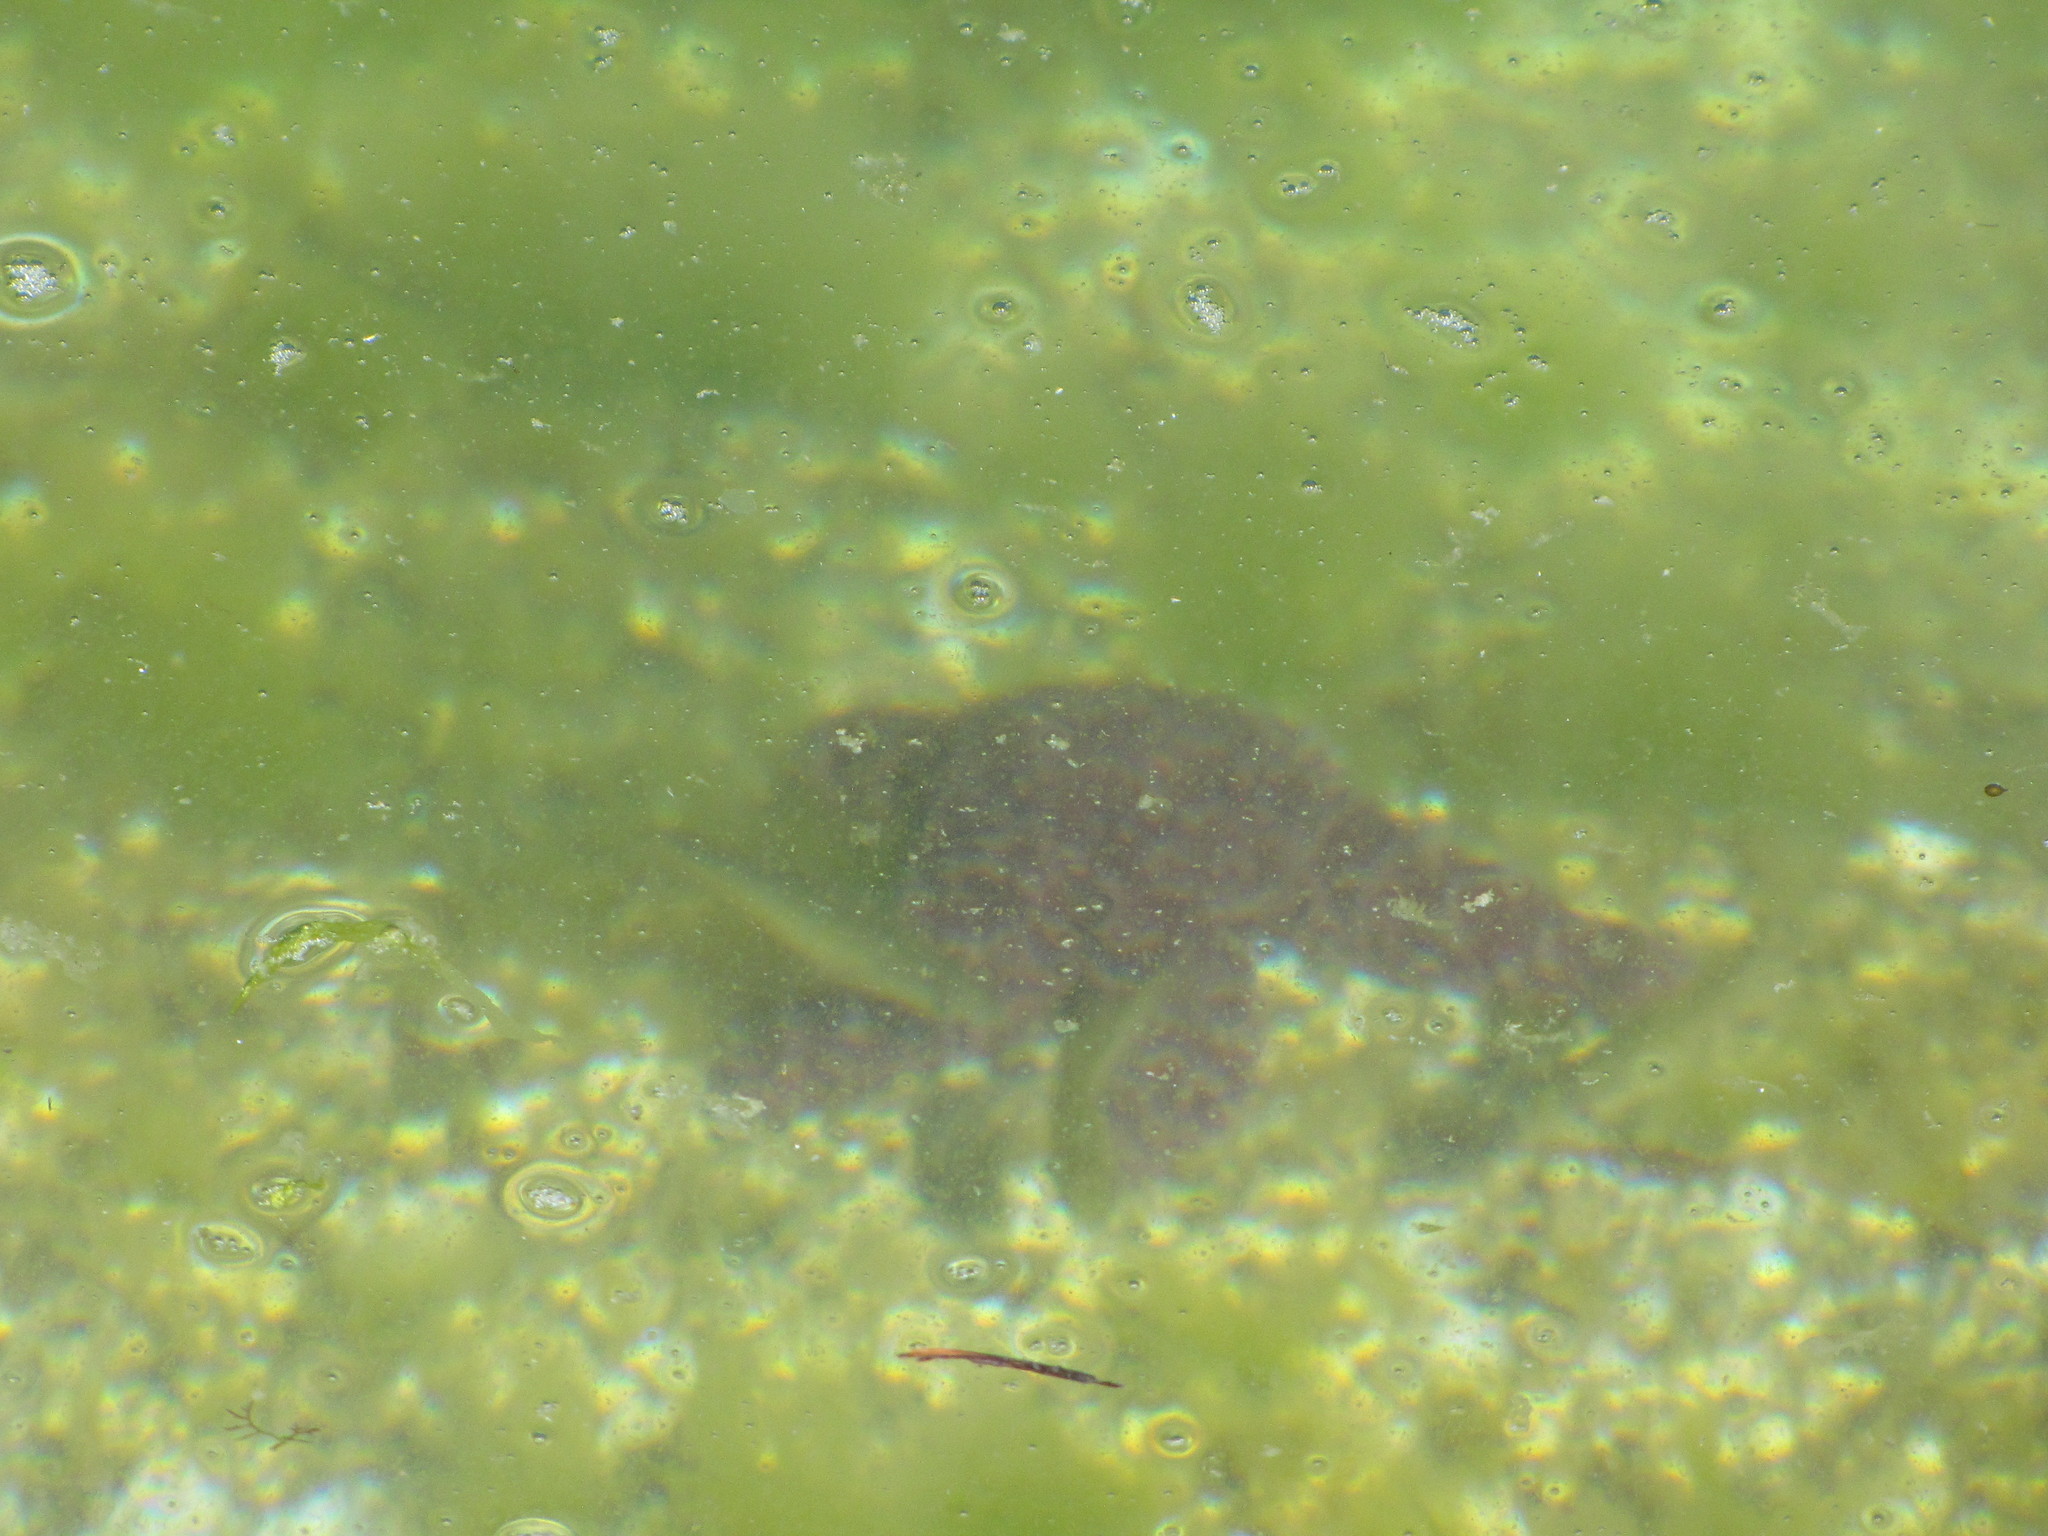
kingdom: Animalia
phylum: Echinodermata
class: Asteroidea
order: Forcipulatida
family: Asteriidae
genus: Pisaster
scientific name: Pisaster ochraceus
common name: Ochre stars
